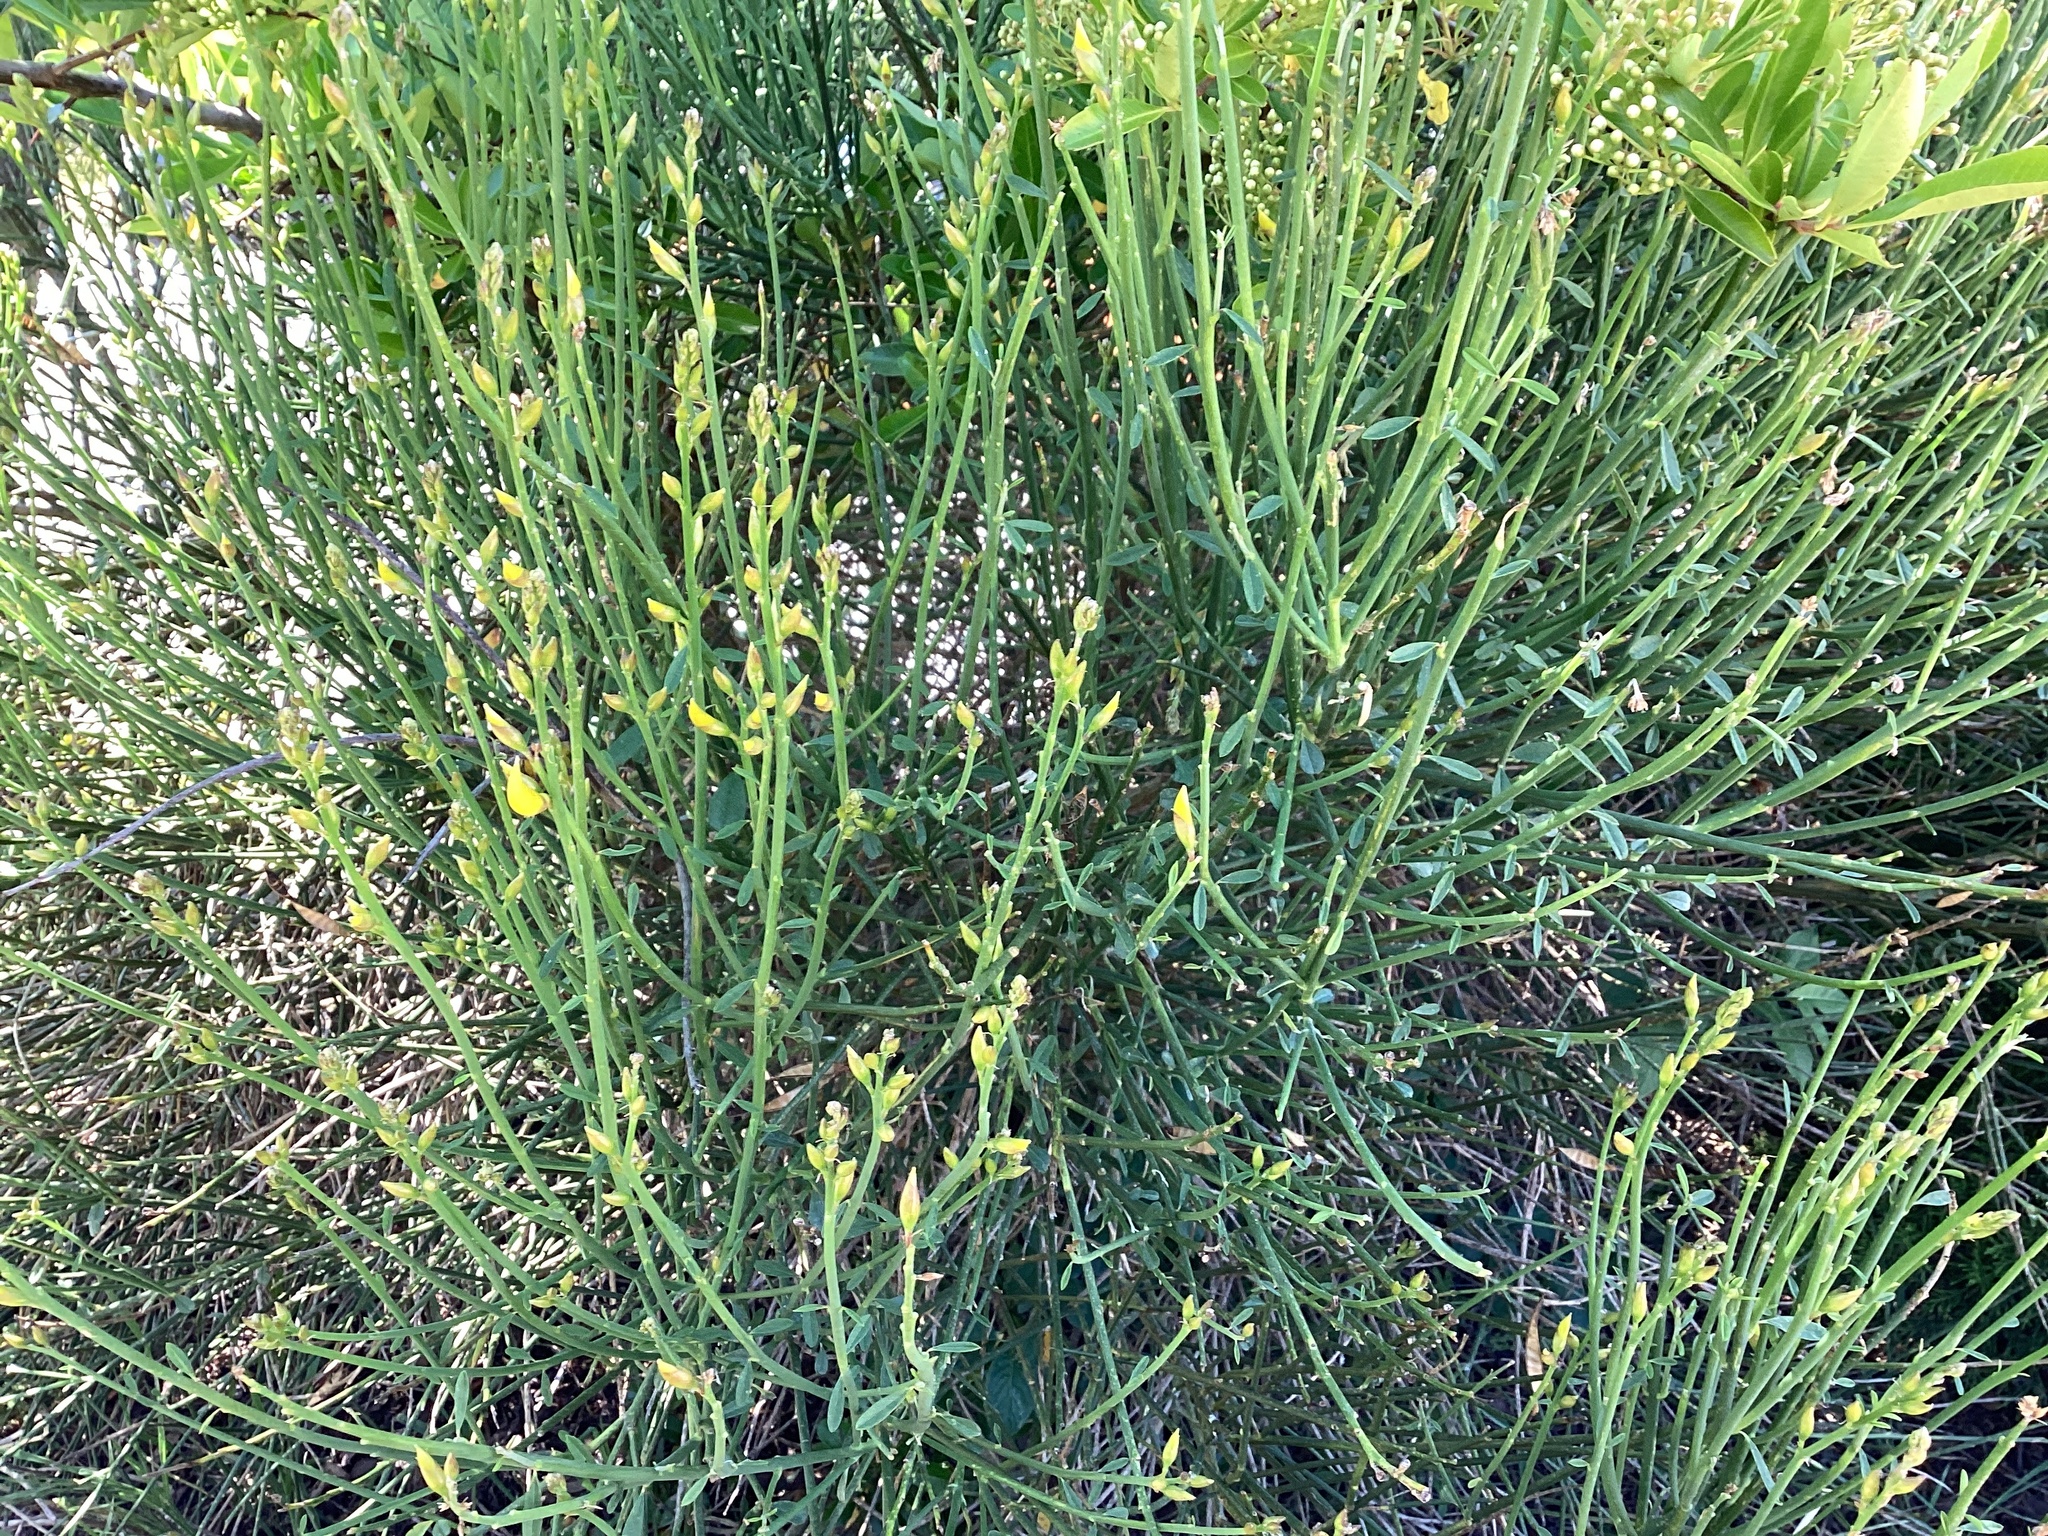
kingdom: Plantae
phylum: Tracheophyta
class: Magnoliopsida
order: Fabales
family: Fabaceae
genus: Cytisus
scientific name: Cytisus scoparius
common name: Scotch broom
